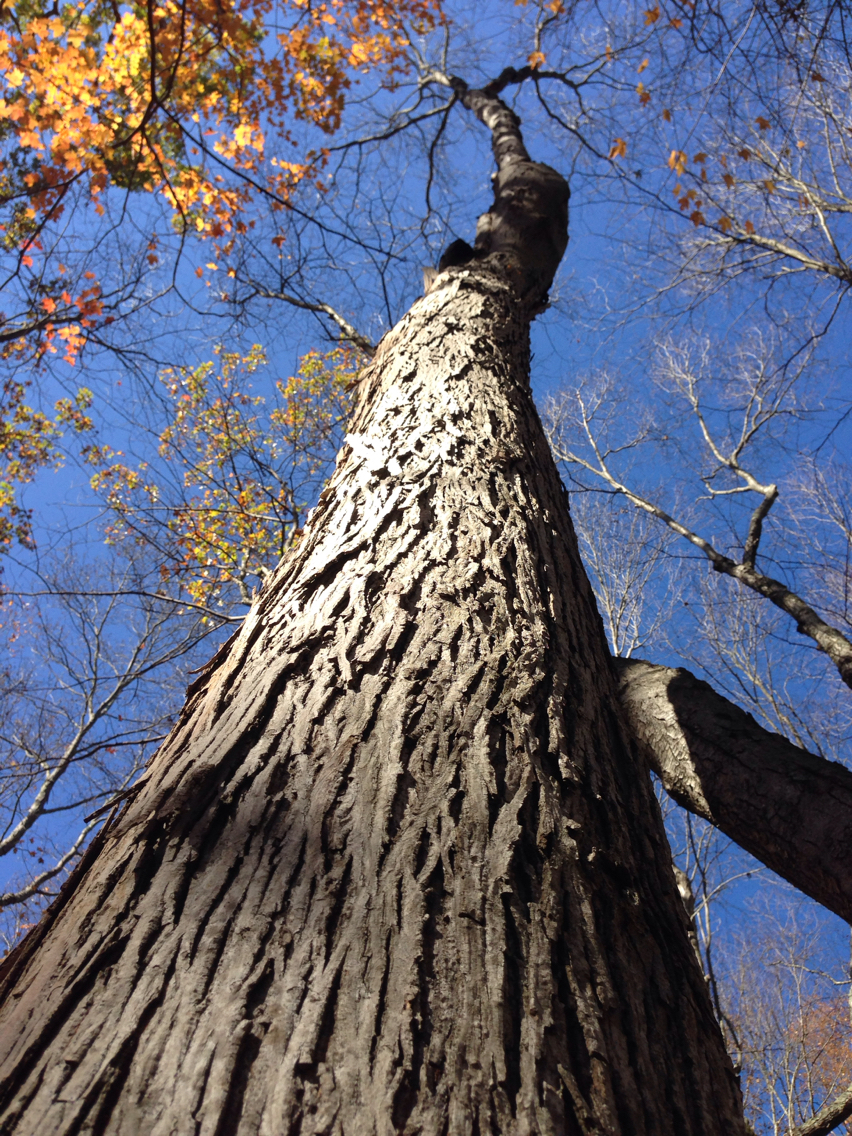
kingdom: Plantae
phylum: Tracheophyta
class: Magnoliopsida
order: Fagales
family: Juglandaceae
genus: Carya
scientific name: Carya ovata
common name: Shagbark hickory
